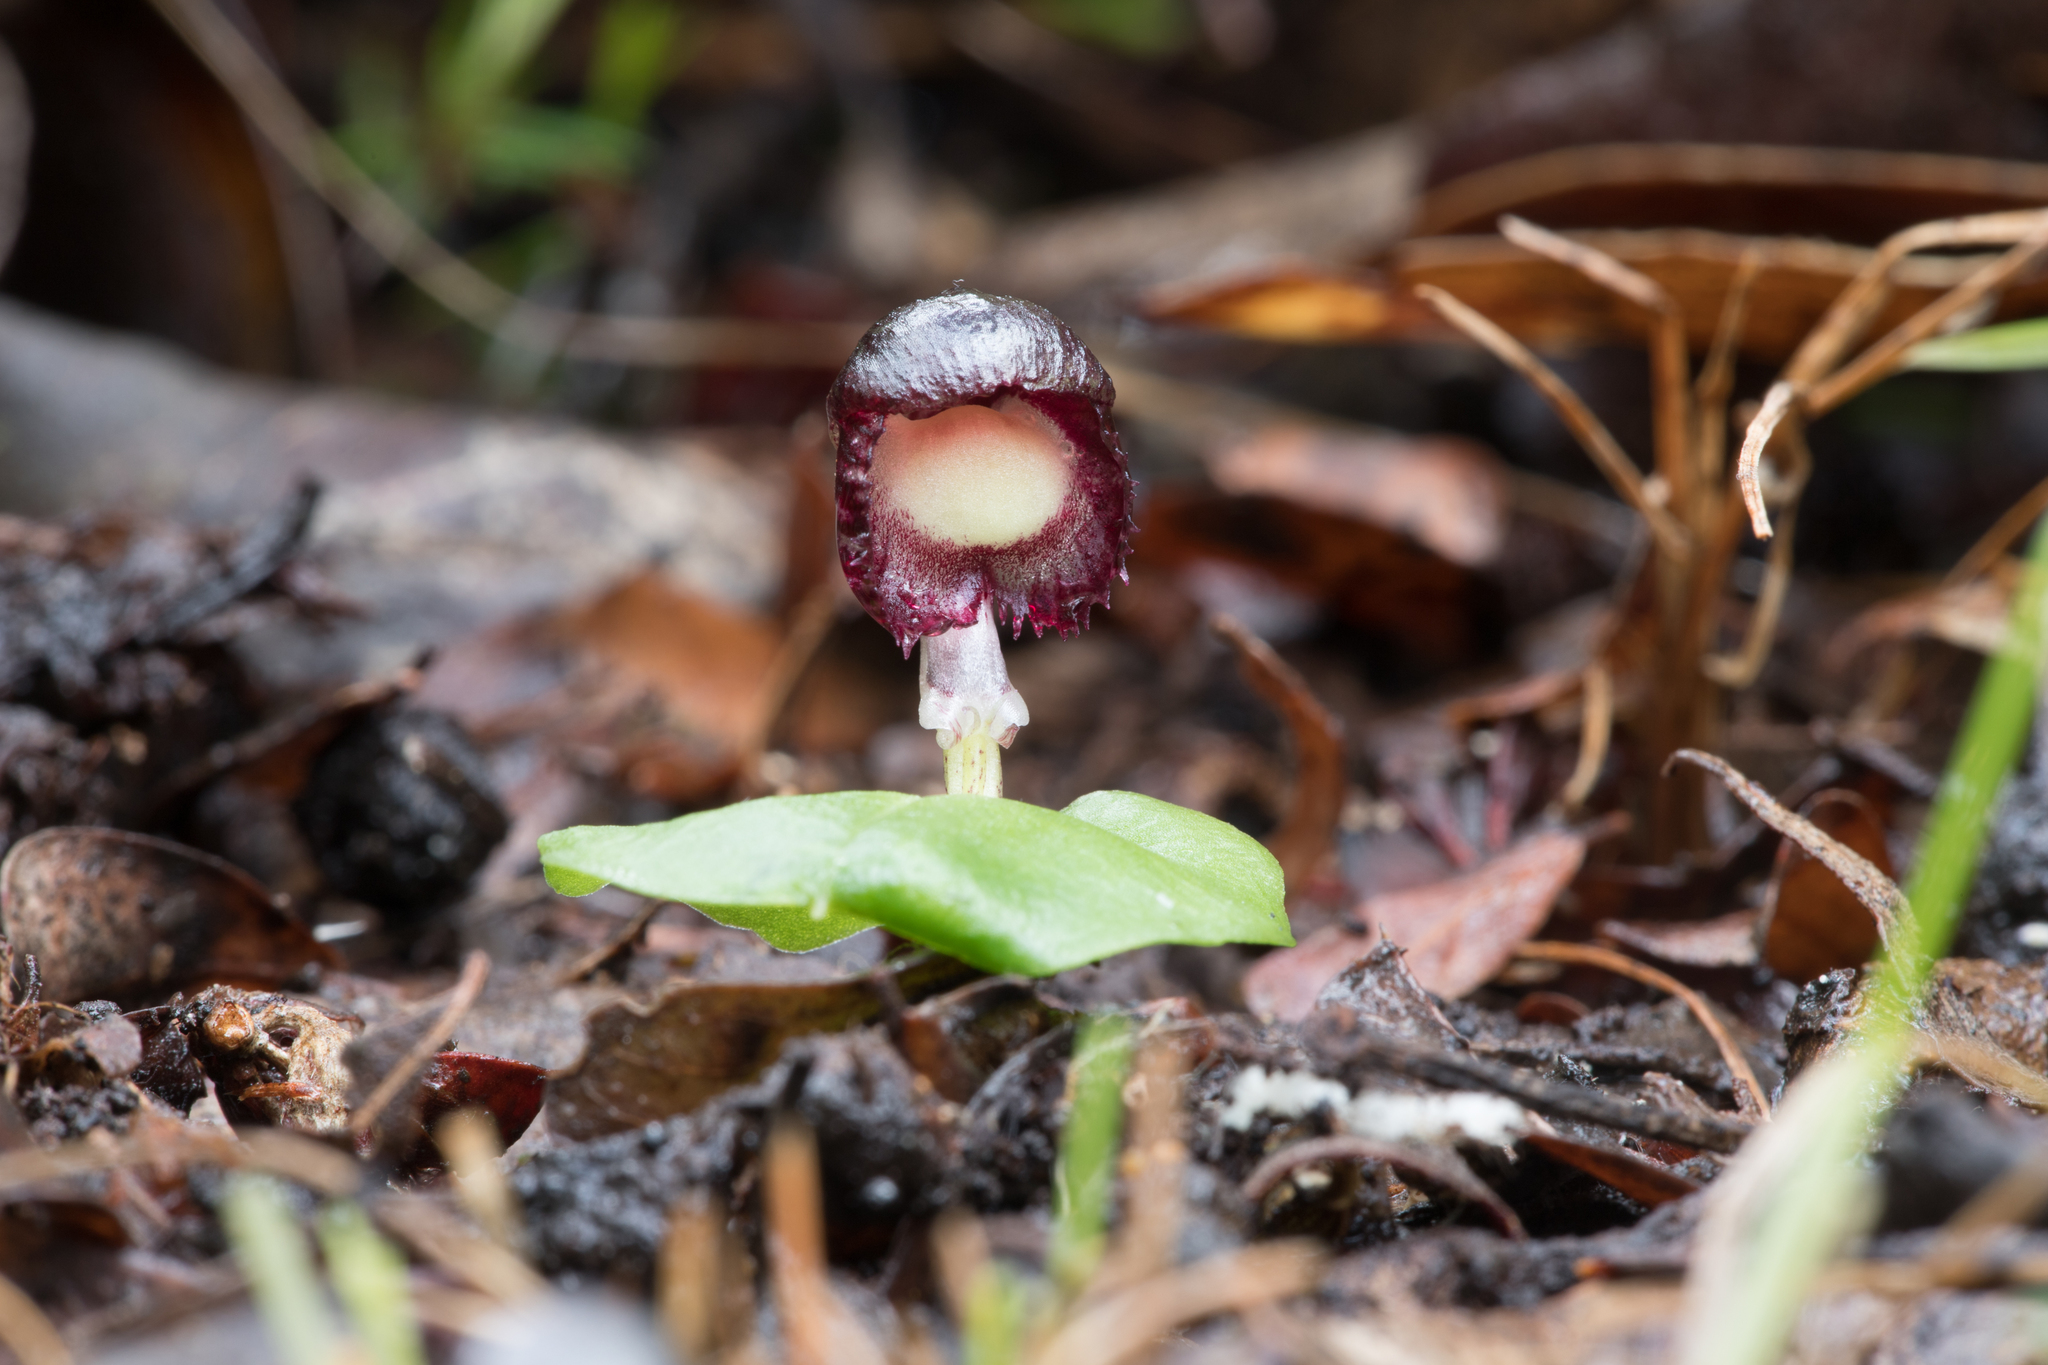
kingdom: Plantae
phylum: Tracheophyta
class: Liliopsida
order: Asparagales
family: Orchidaceae
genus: Corybas
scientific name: Corybas diemenicus
